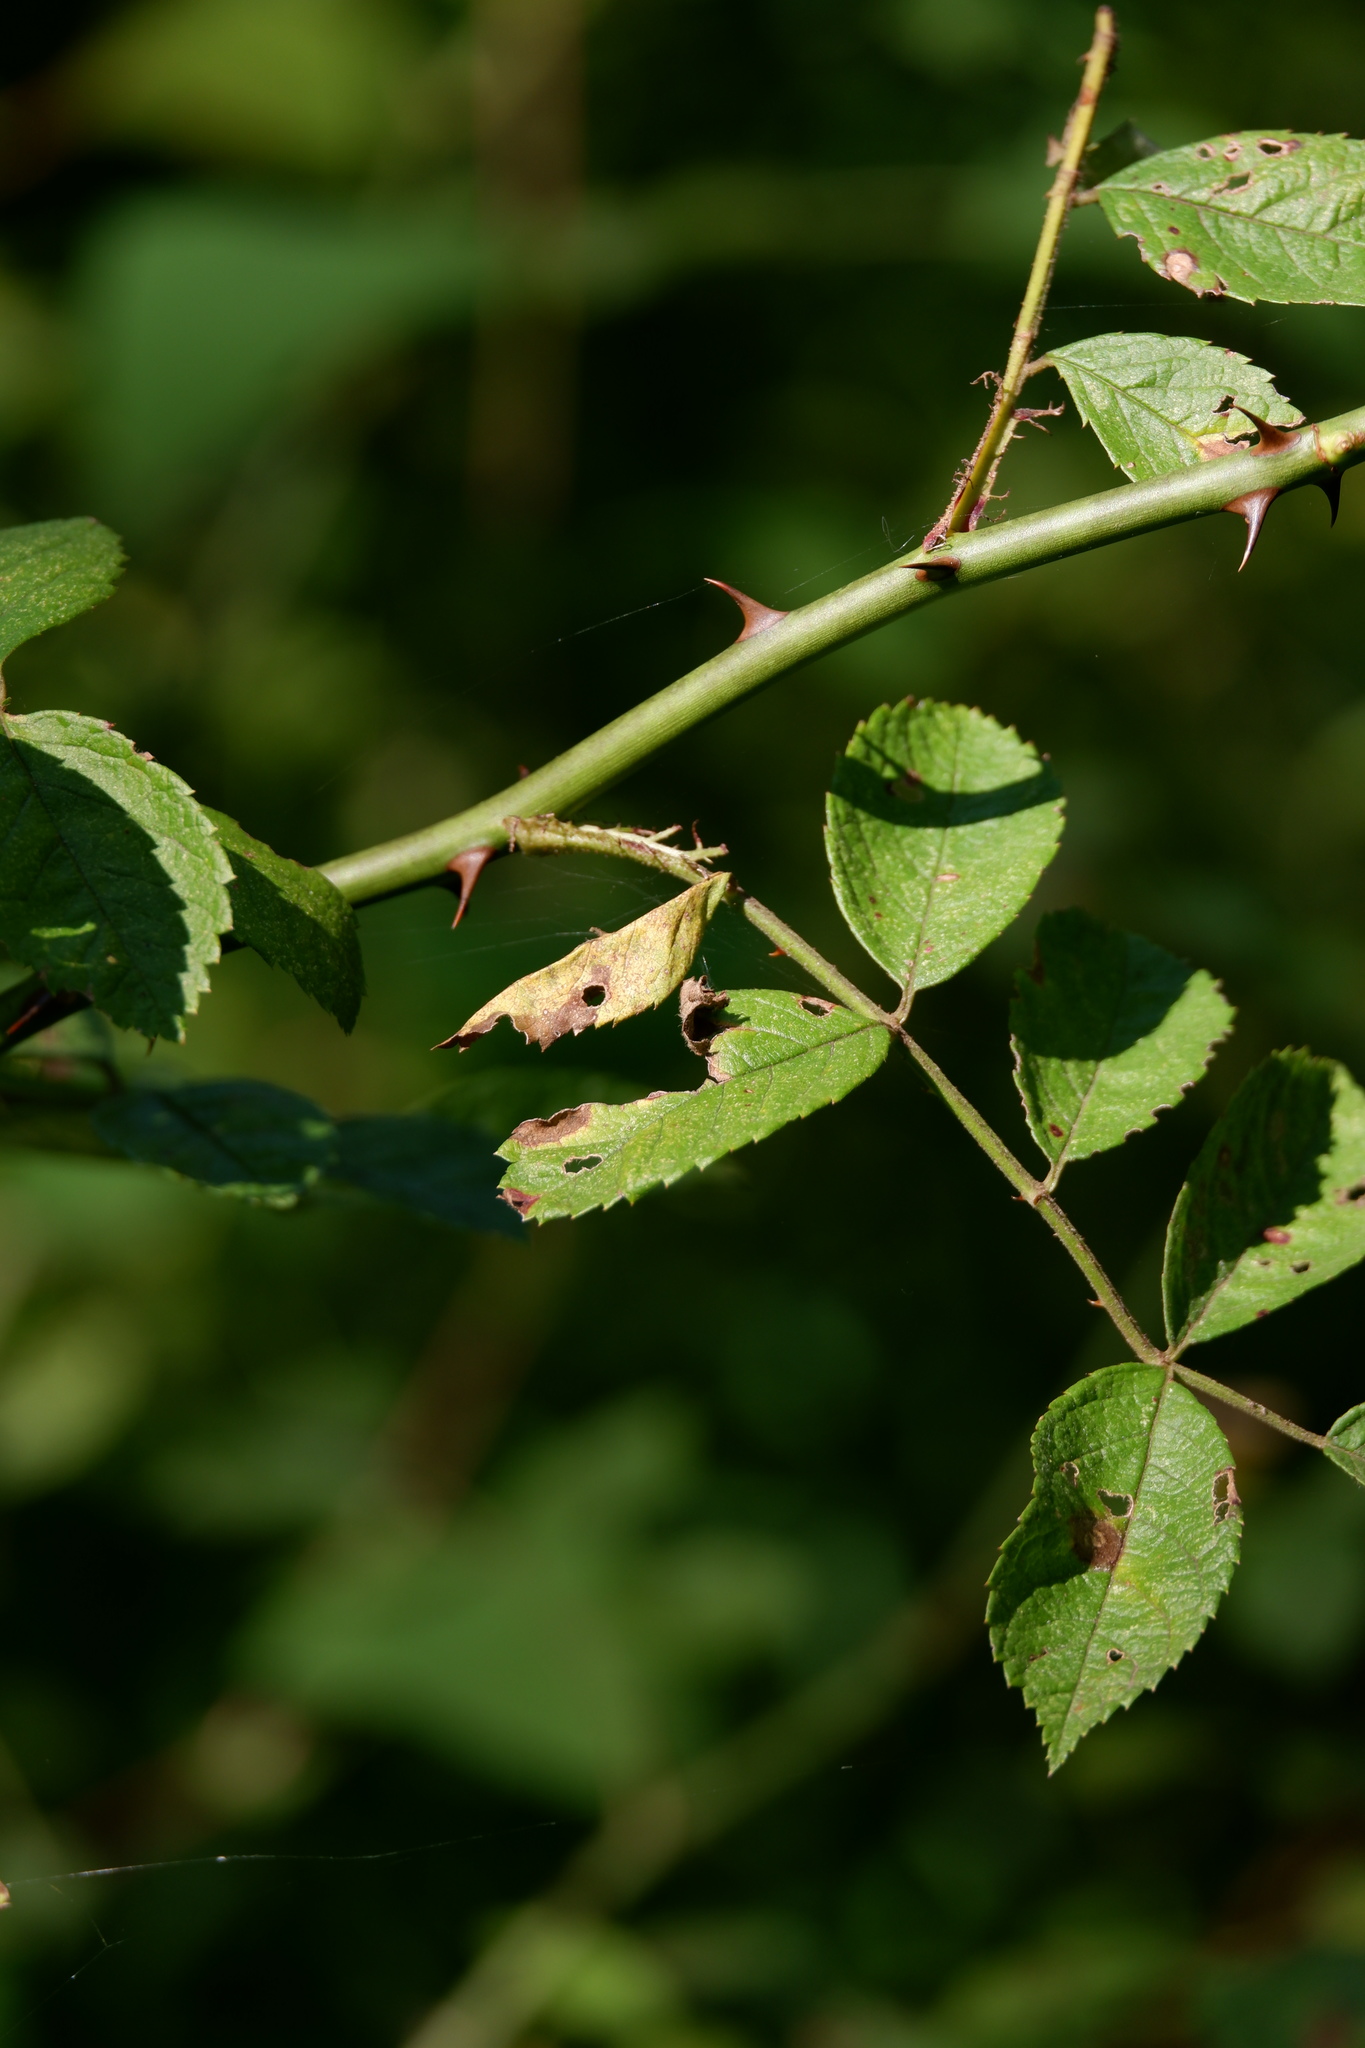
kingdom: Plantae
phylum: Tracheophyta
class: Magnoliopsida
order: Rosales
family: Rosaceae
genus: Rosa
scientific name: Rosa multiflora
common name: Multiflora rose
